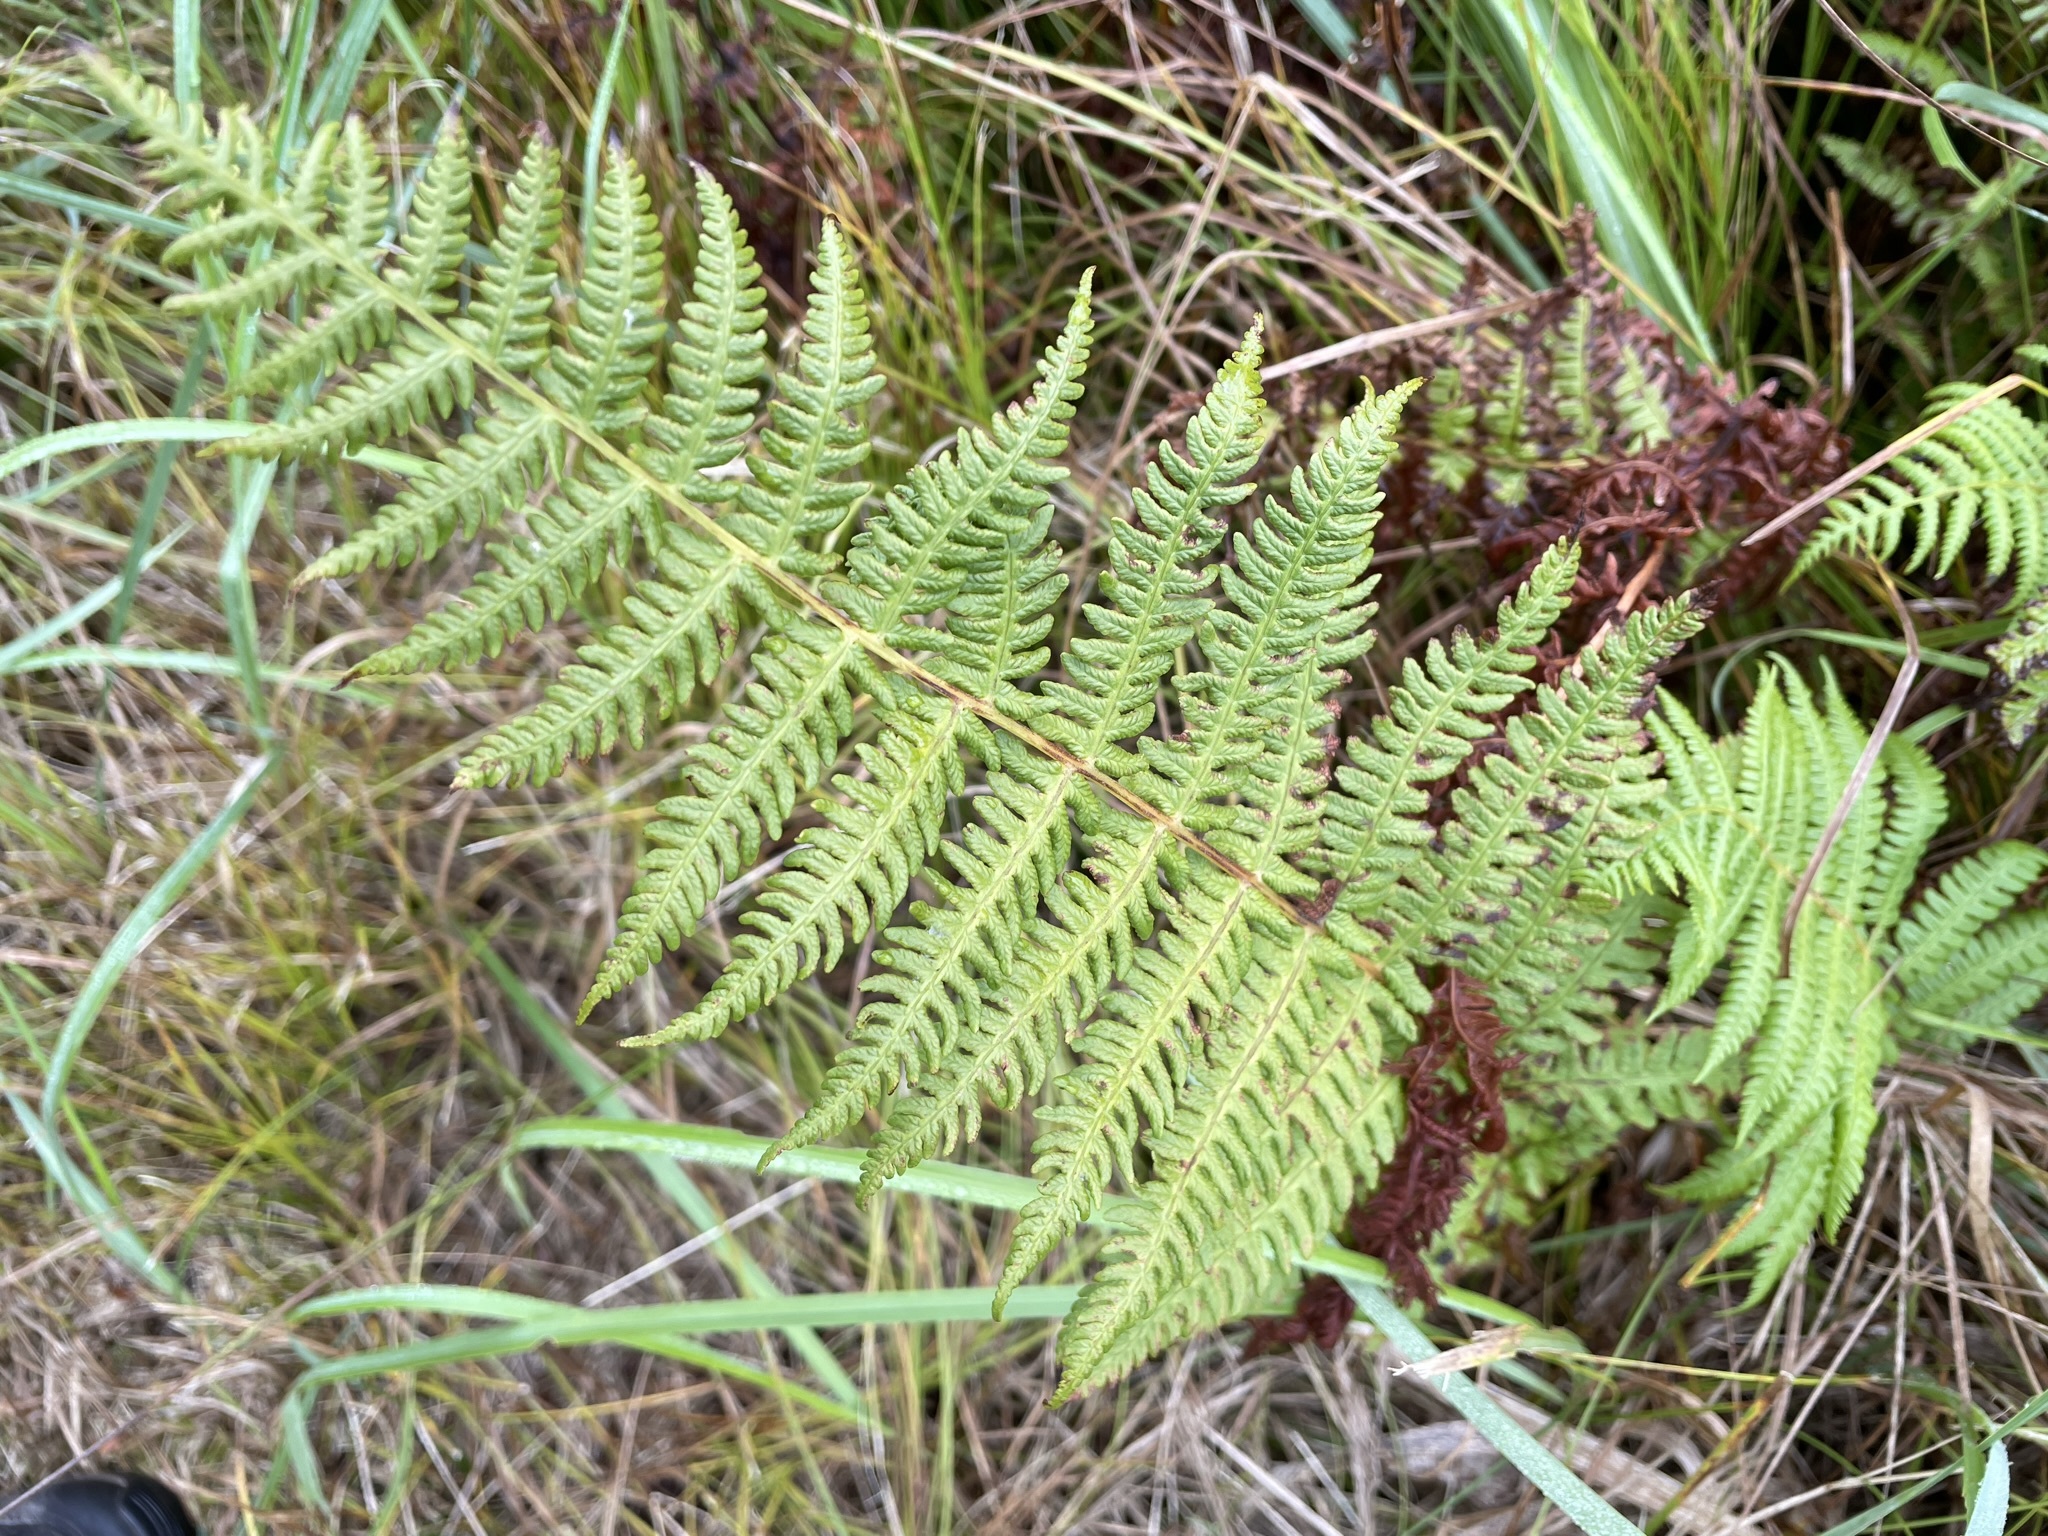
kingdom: Plantae
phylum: Tracheophyta
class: Polypodiopsida
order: Polypodiales
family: Thelypteridaceae
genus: Oreopteris
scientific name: Oreopteris limbosperma
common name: Lemon-scented fern
